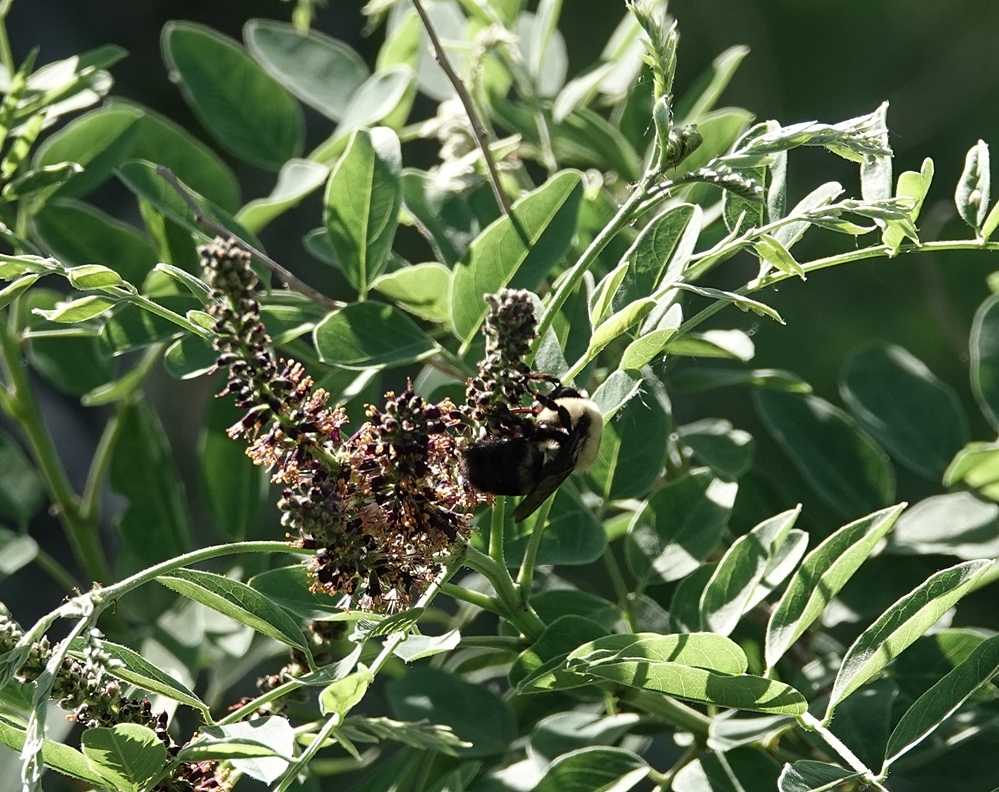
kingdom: Animalia
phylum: Arthropoda
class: Insecta
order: Hymenoptera
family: Apidae
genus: Bombus
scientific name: Bombus griseocollis
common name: Brown-belted bumble bee
